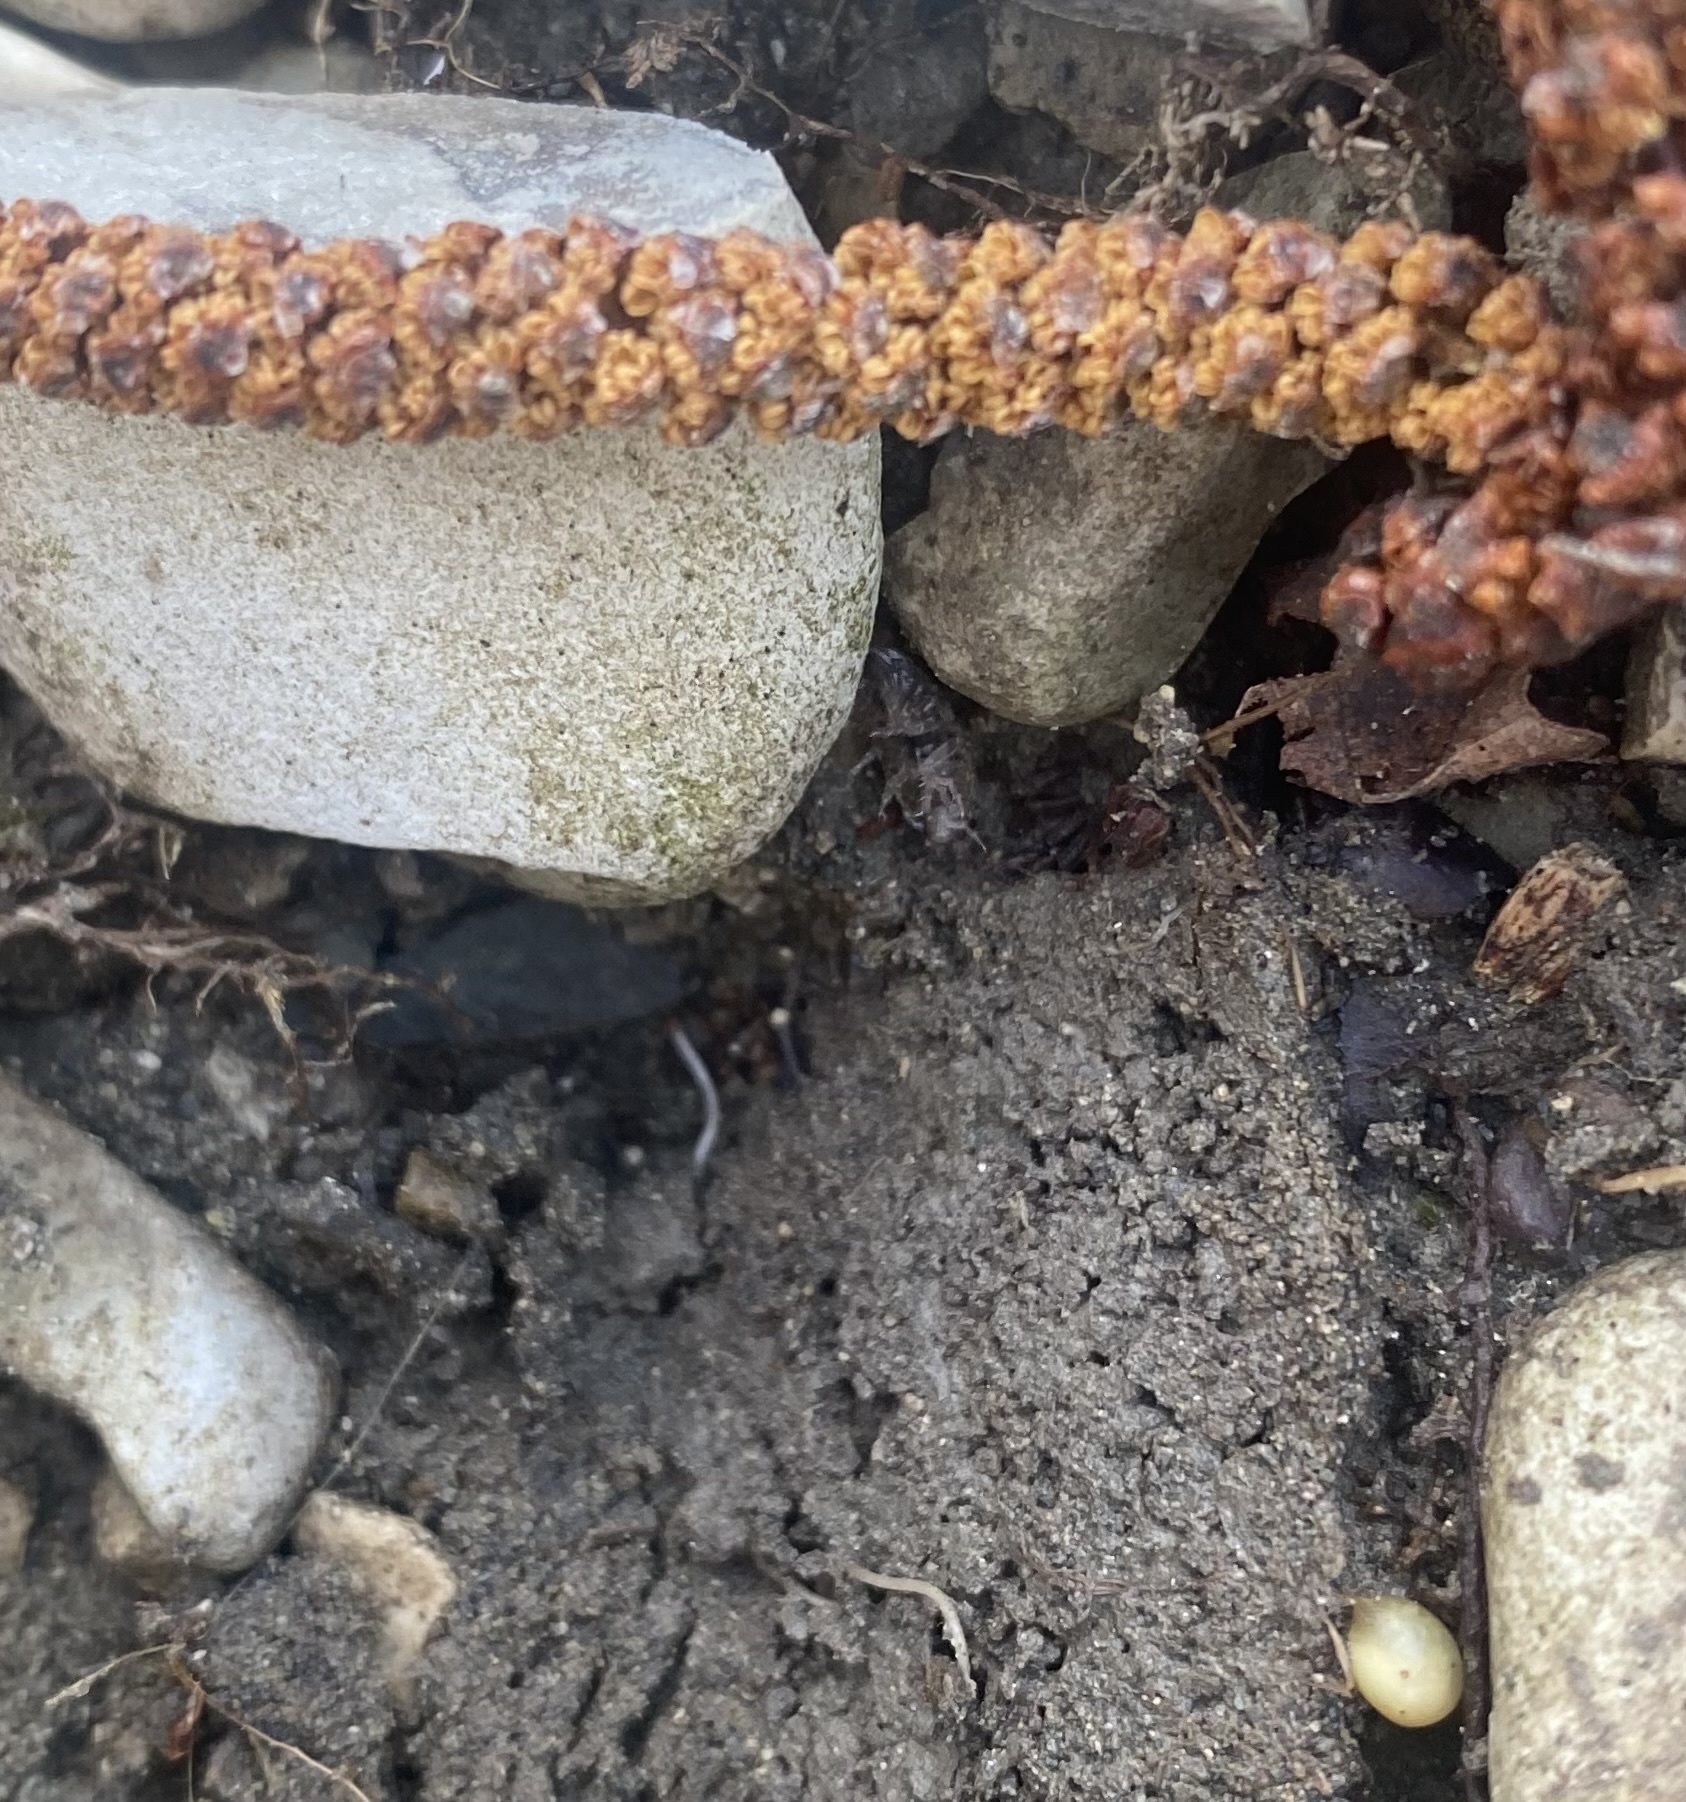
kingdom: Animalia
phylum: Arthropoda
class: Malacostraca
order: Isopoda
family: Ligiidae
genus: Ligidium
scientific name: Ligidium
